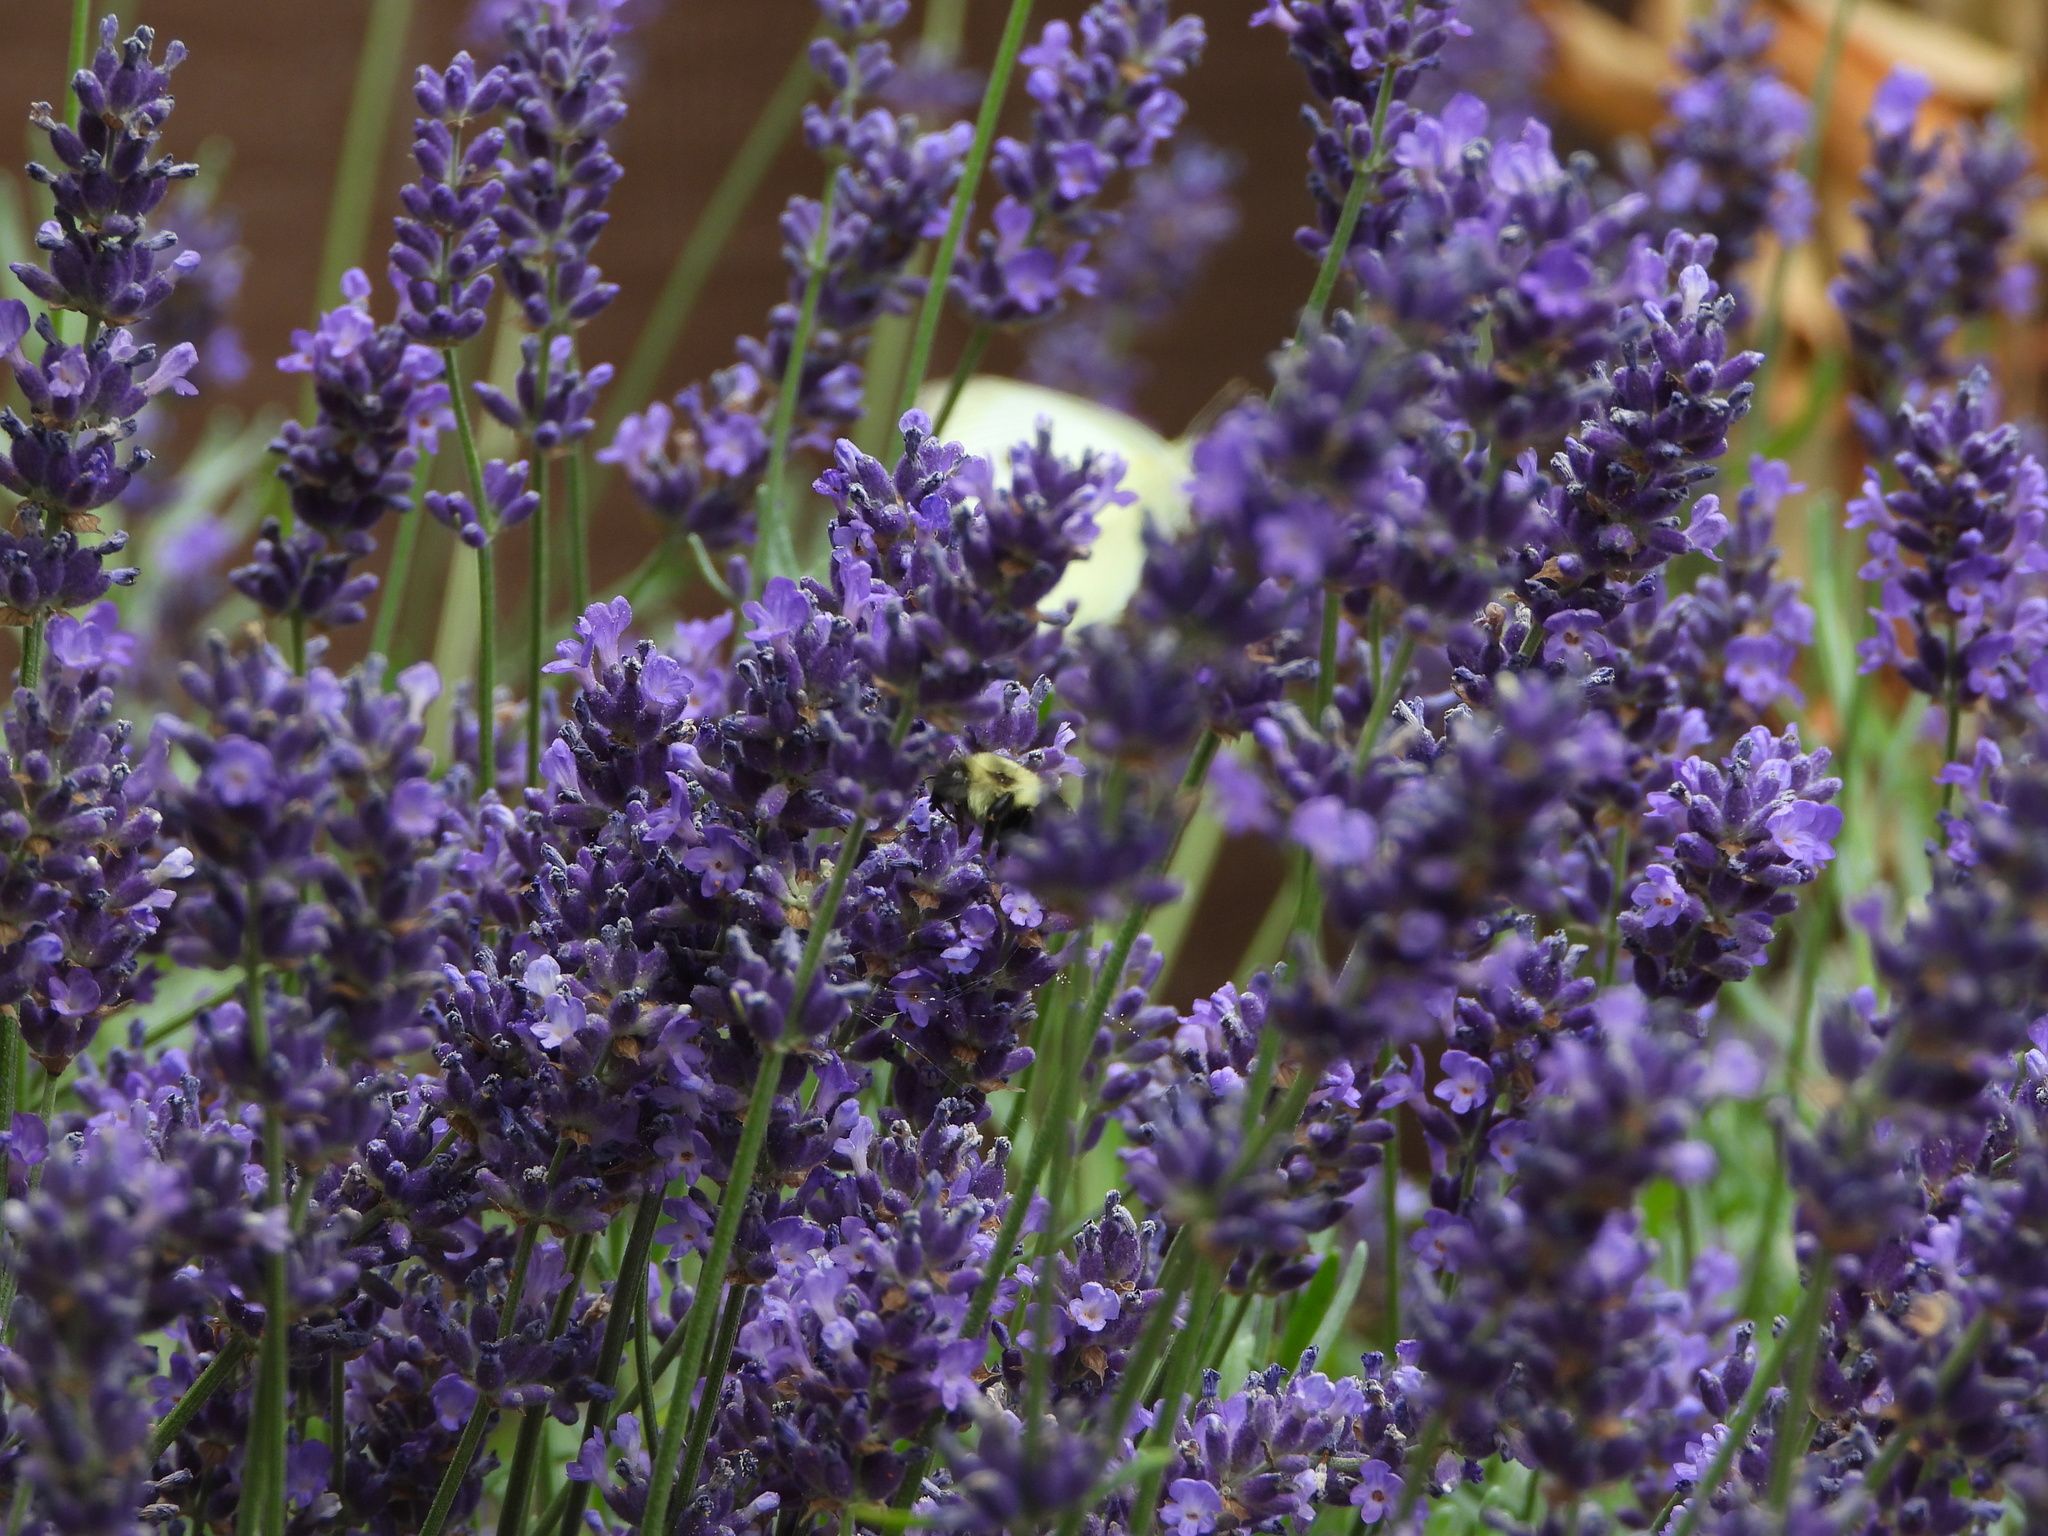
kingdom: Animalia
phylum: Arthropoda
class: Insecta
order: Hymenoptera
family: Apidae
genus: Bombus
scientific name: Bombus impatiens
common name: Common eastern bumble bee
